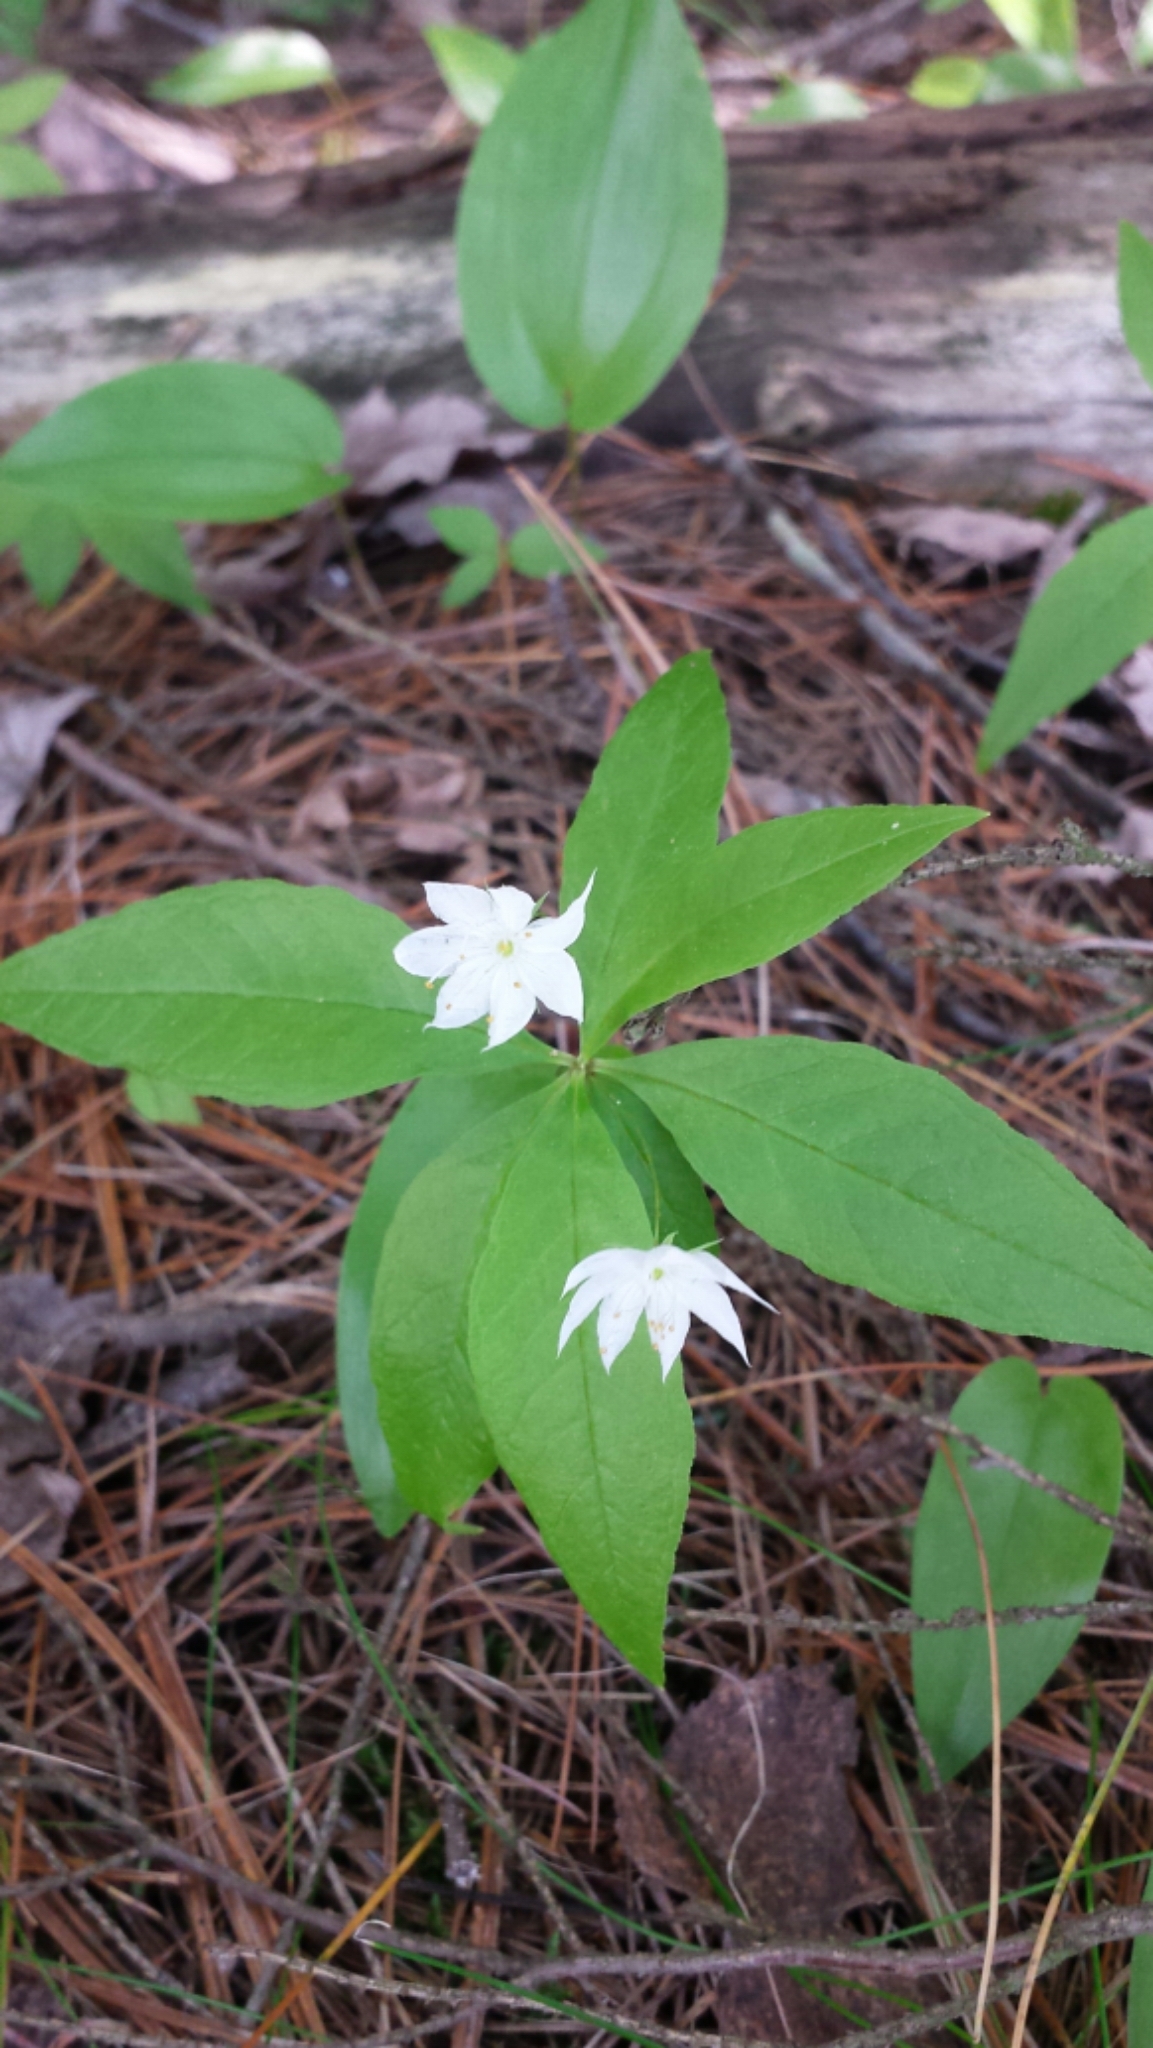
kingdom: Plantae
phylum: Tracheophyta
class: Magnoliopsida
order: Ericales
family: Primulaceae
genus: Lysimachia
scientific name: Lysimachia borealis
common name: American starflower
